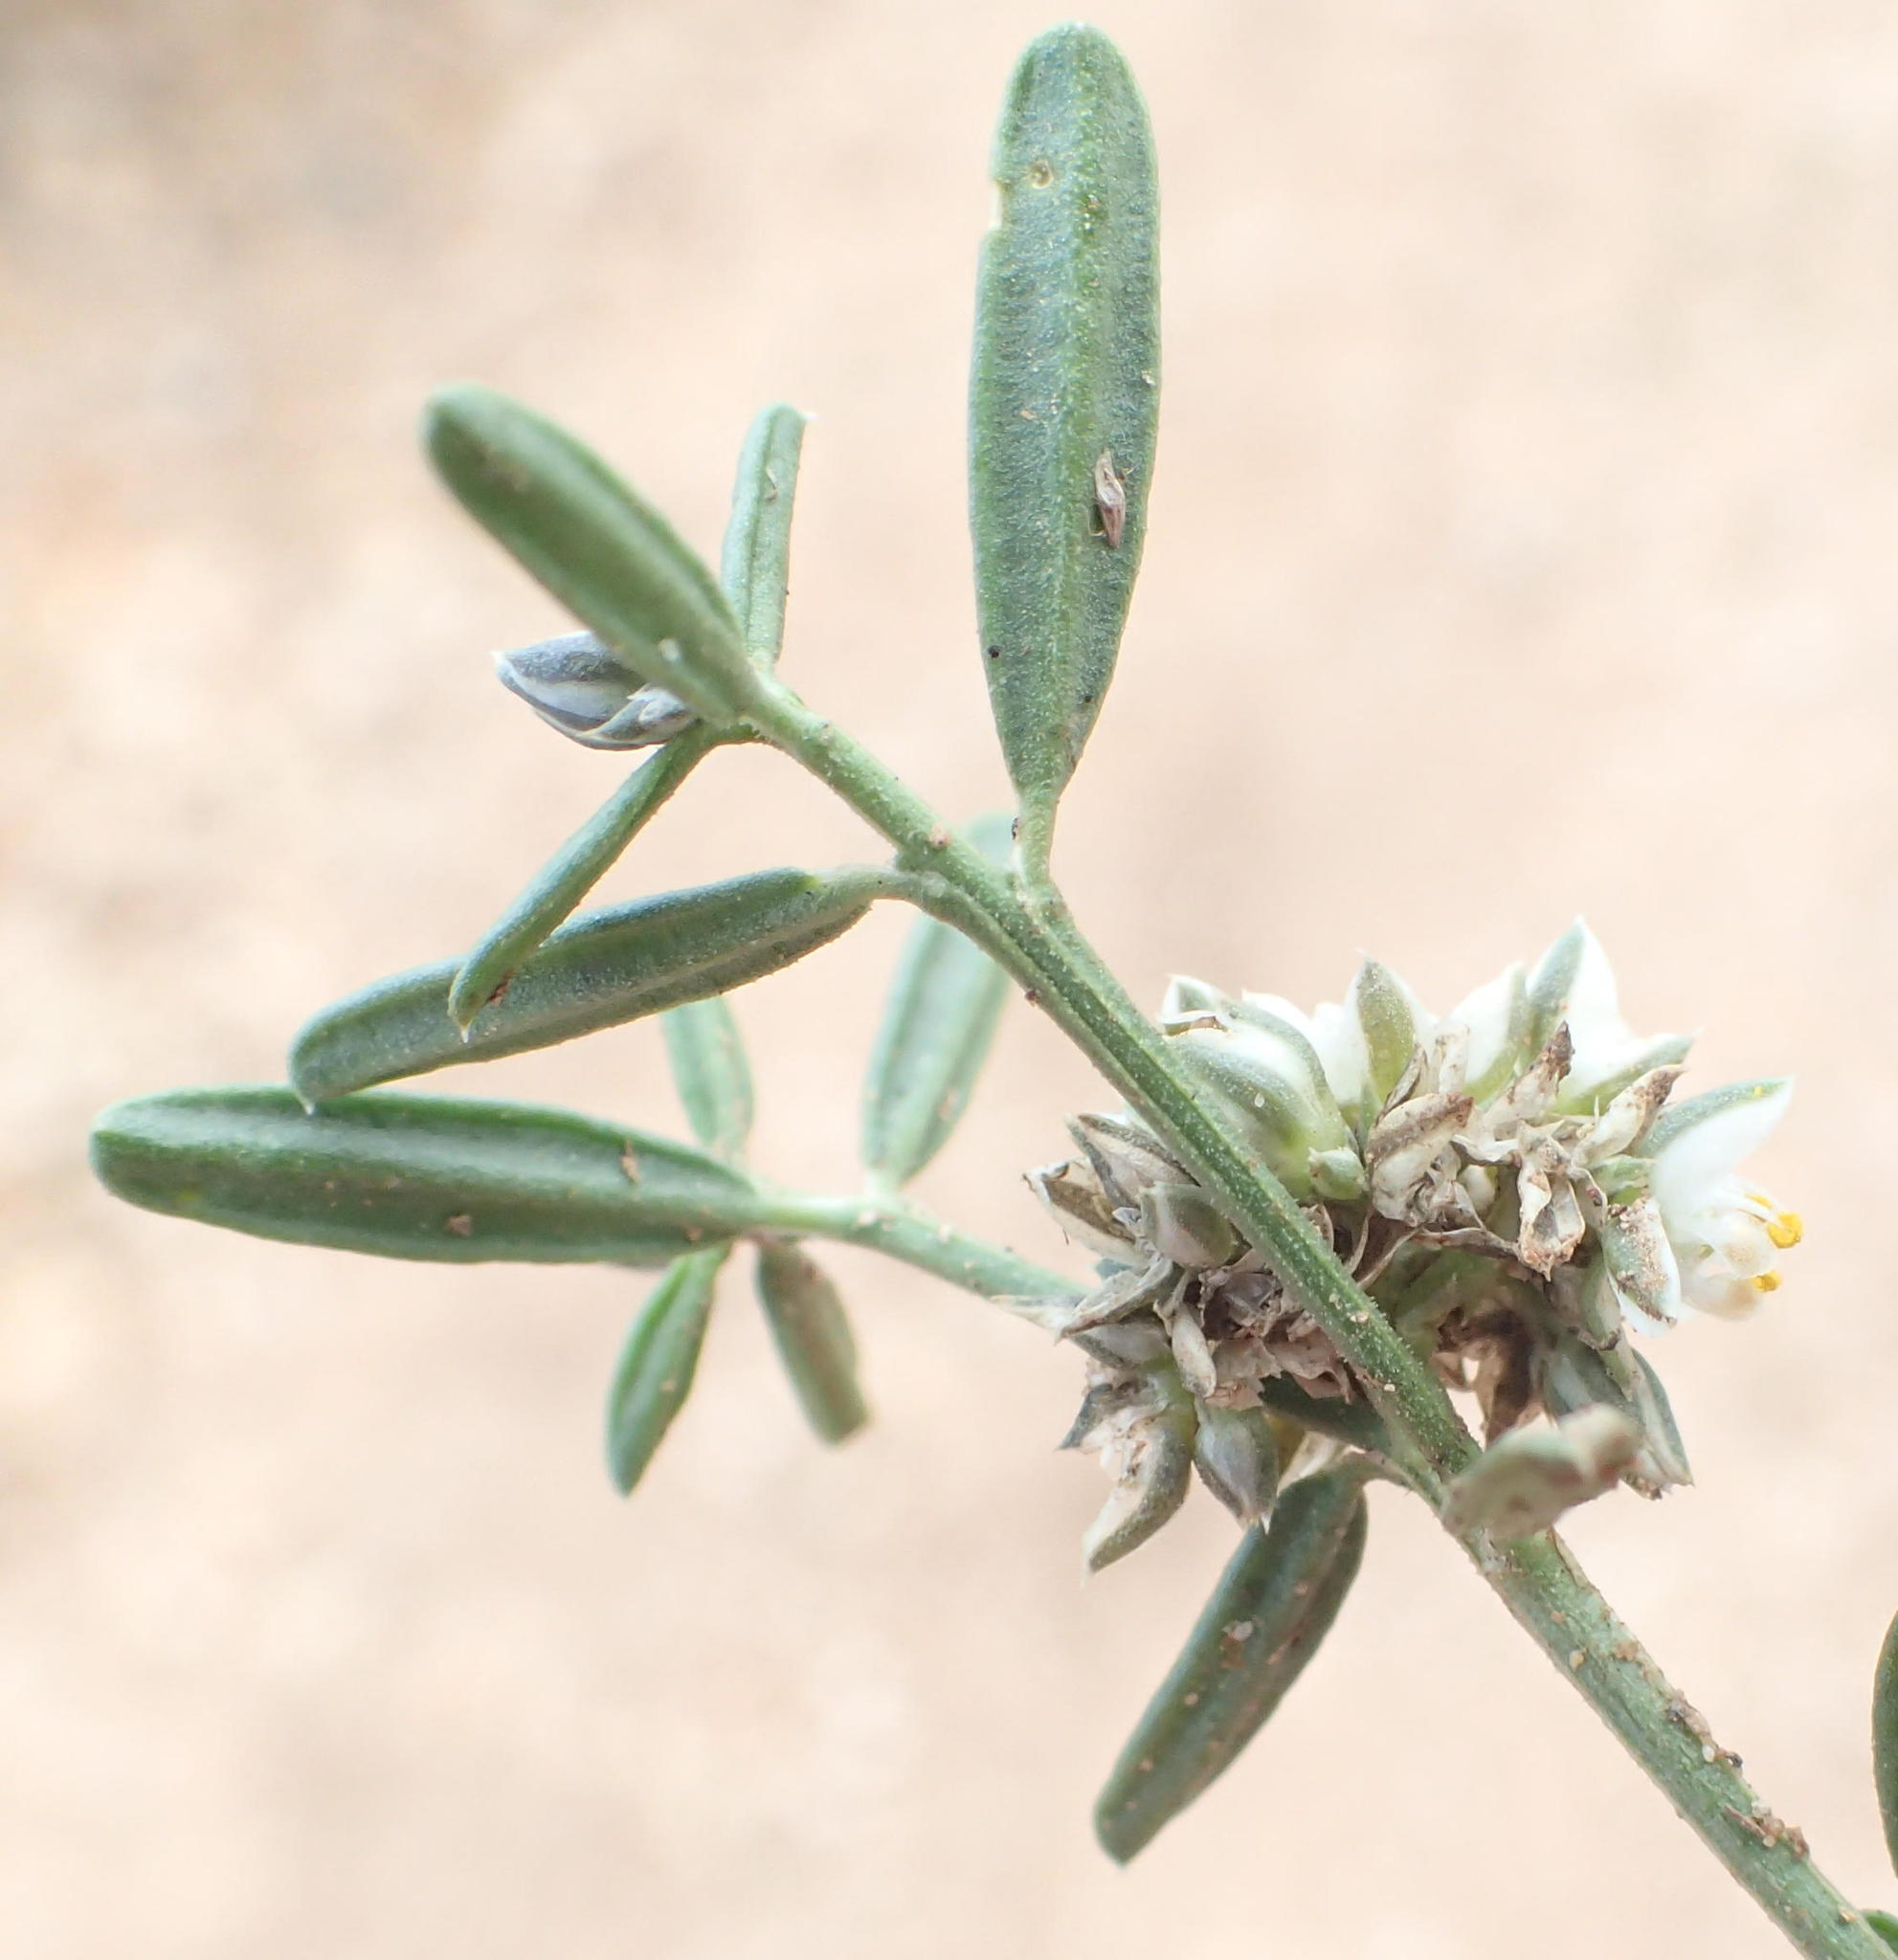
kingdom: Plantae
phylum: Tracheophyta
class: Magnoliopsida
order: Caryophyllales
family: Limeaceae
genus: Limeum
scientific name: Limeum aethiopicum
